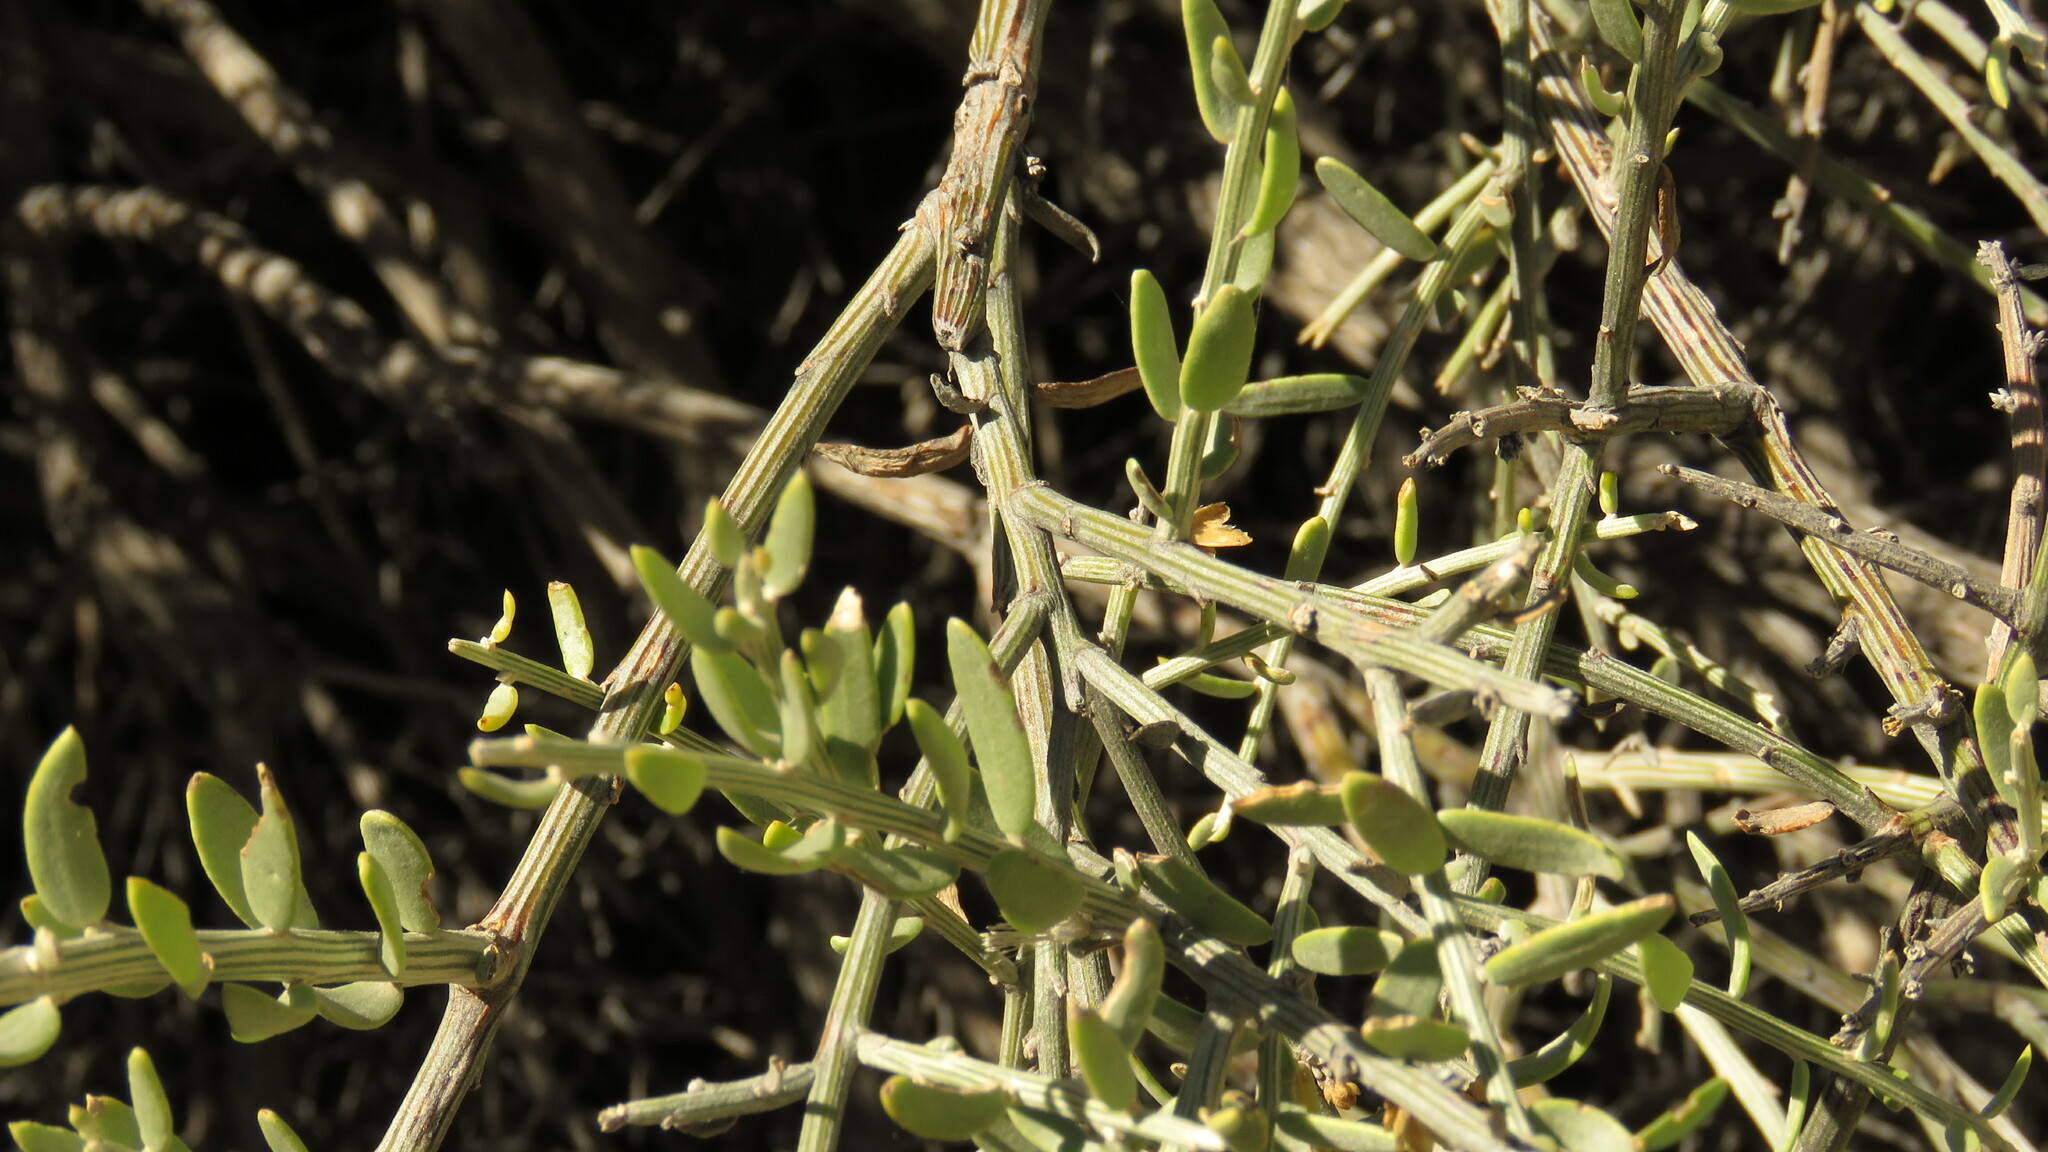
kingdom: Plantae
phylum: Tracheophyta
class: Magnoliopsida
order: Asterales
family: Asteraceae
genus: Cyclolepis
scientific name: Cyclolepis genistoides
